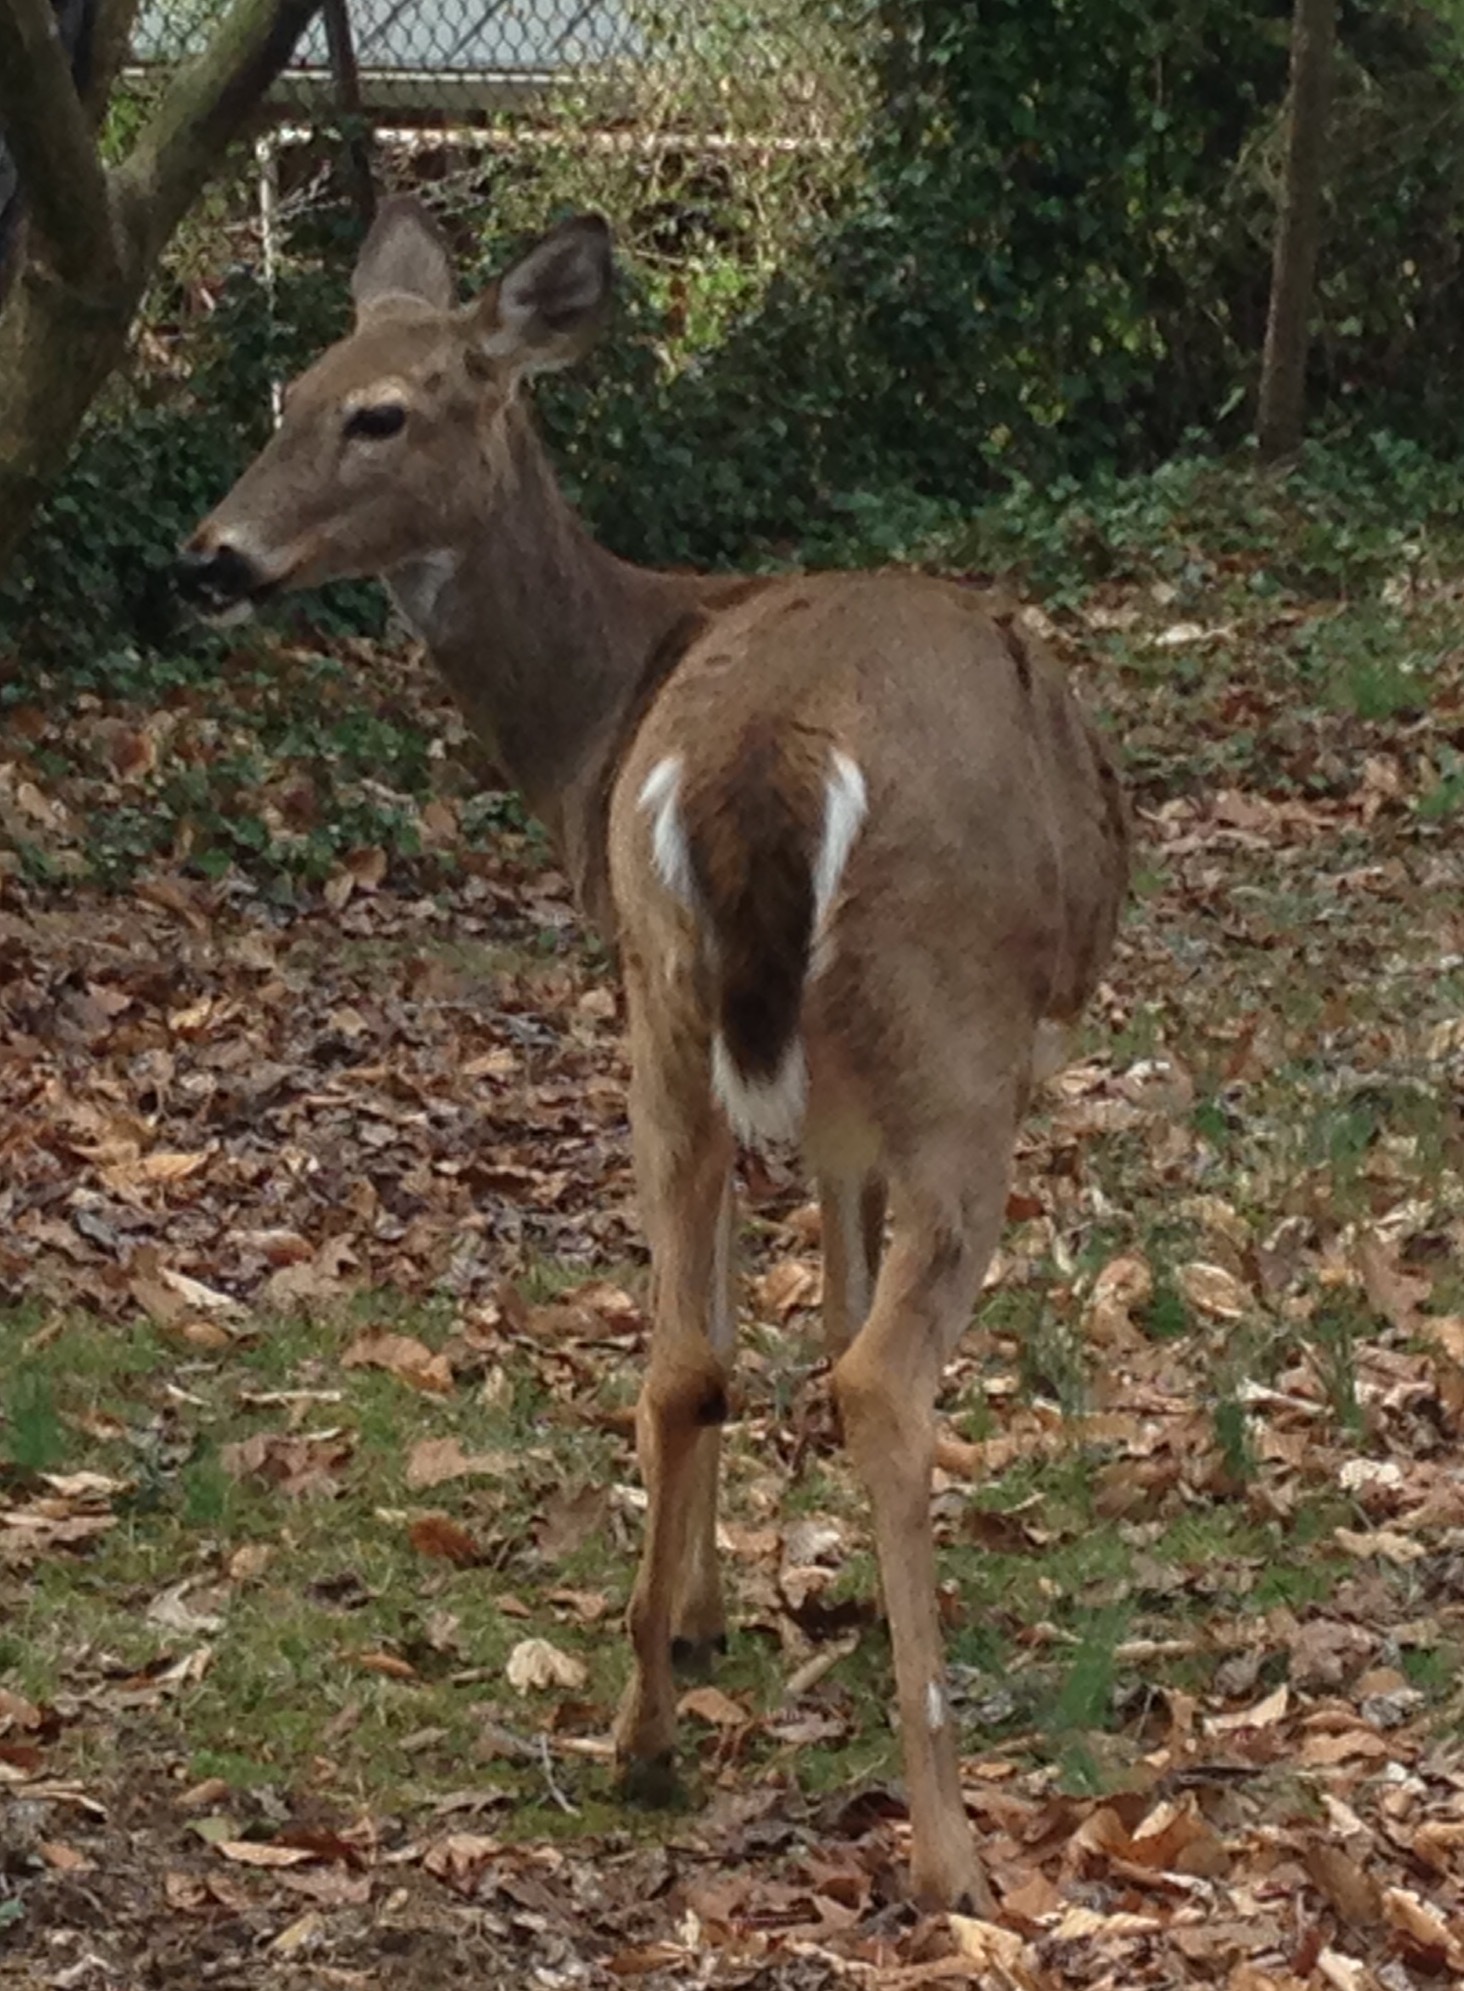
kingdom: Animalia
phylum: Chordata
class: Mammalia
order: Artiodactyla
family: Cervidae
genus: Odocoileus
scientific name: Odocoileus virginianus
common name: White-tailed deer
